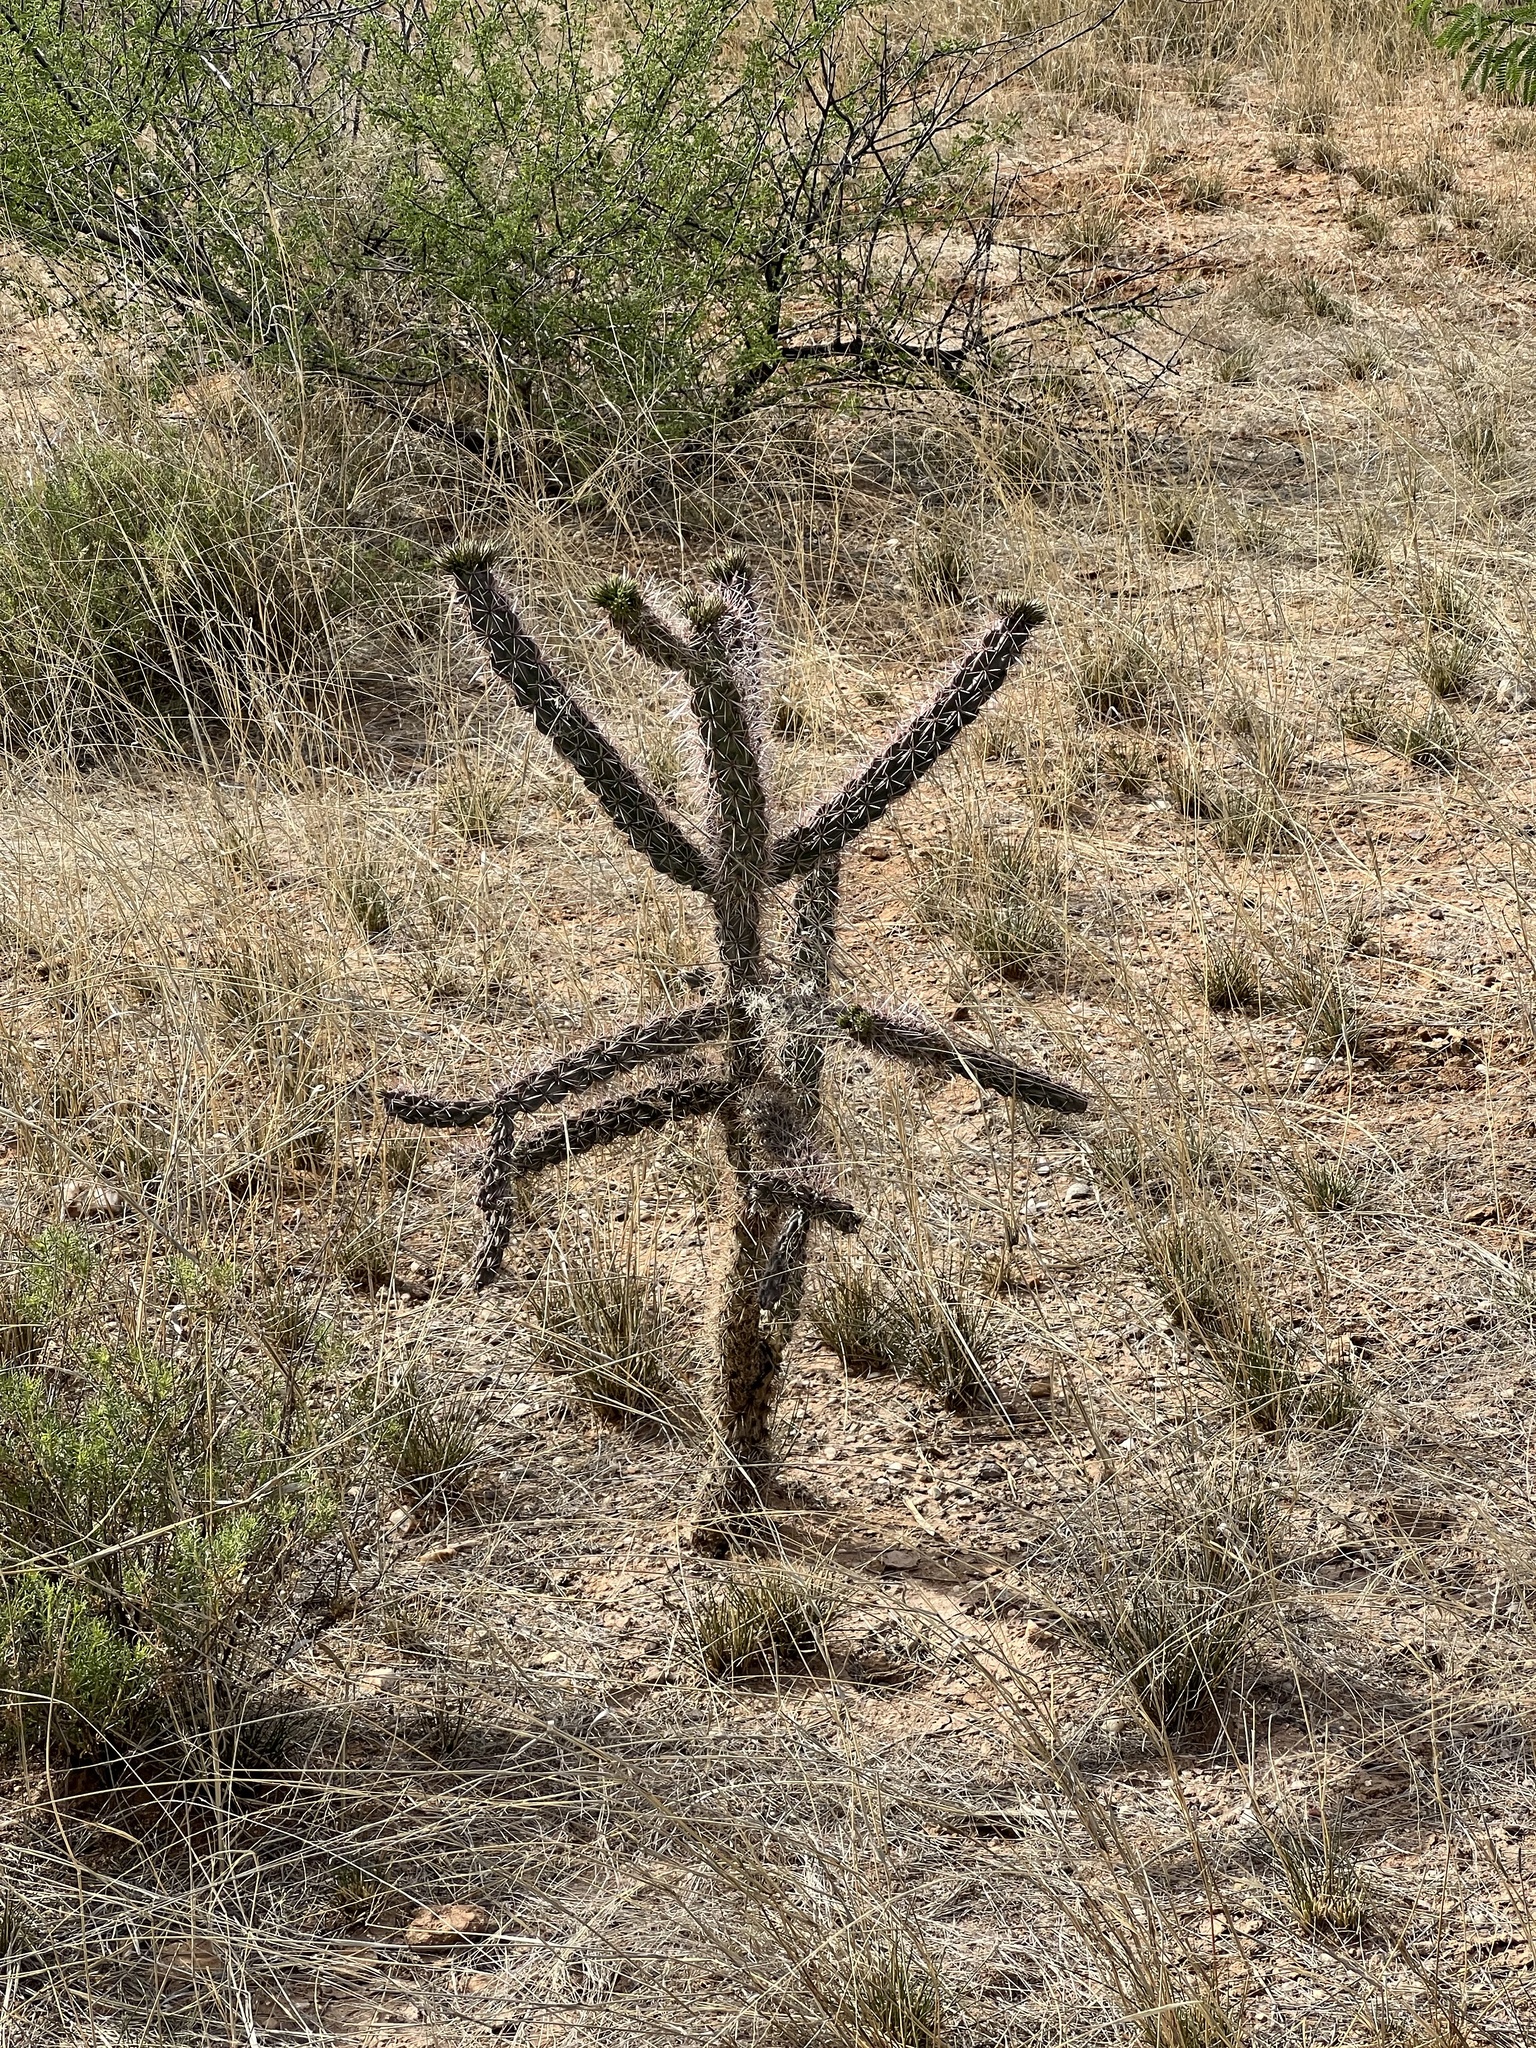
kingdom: Plantae
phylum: Tracheophyta
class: Magnoliopsida
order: Caryophyllales
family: Cactaceae
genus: Cylindropuntia
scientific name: Cylindropuntia imbricata
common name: Candelabrum cactus
